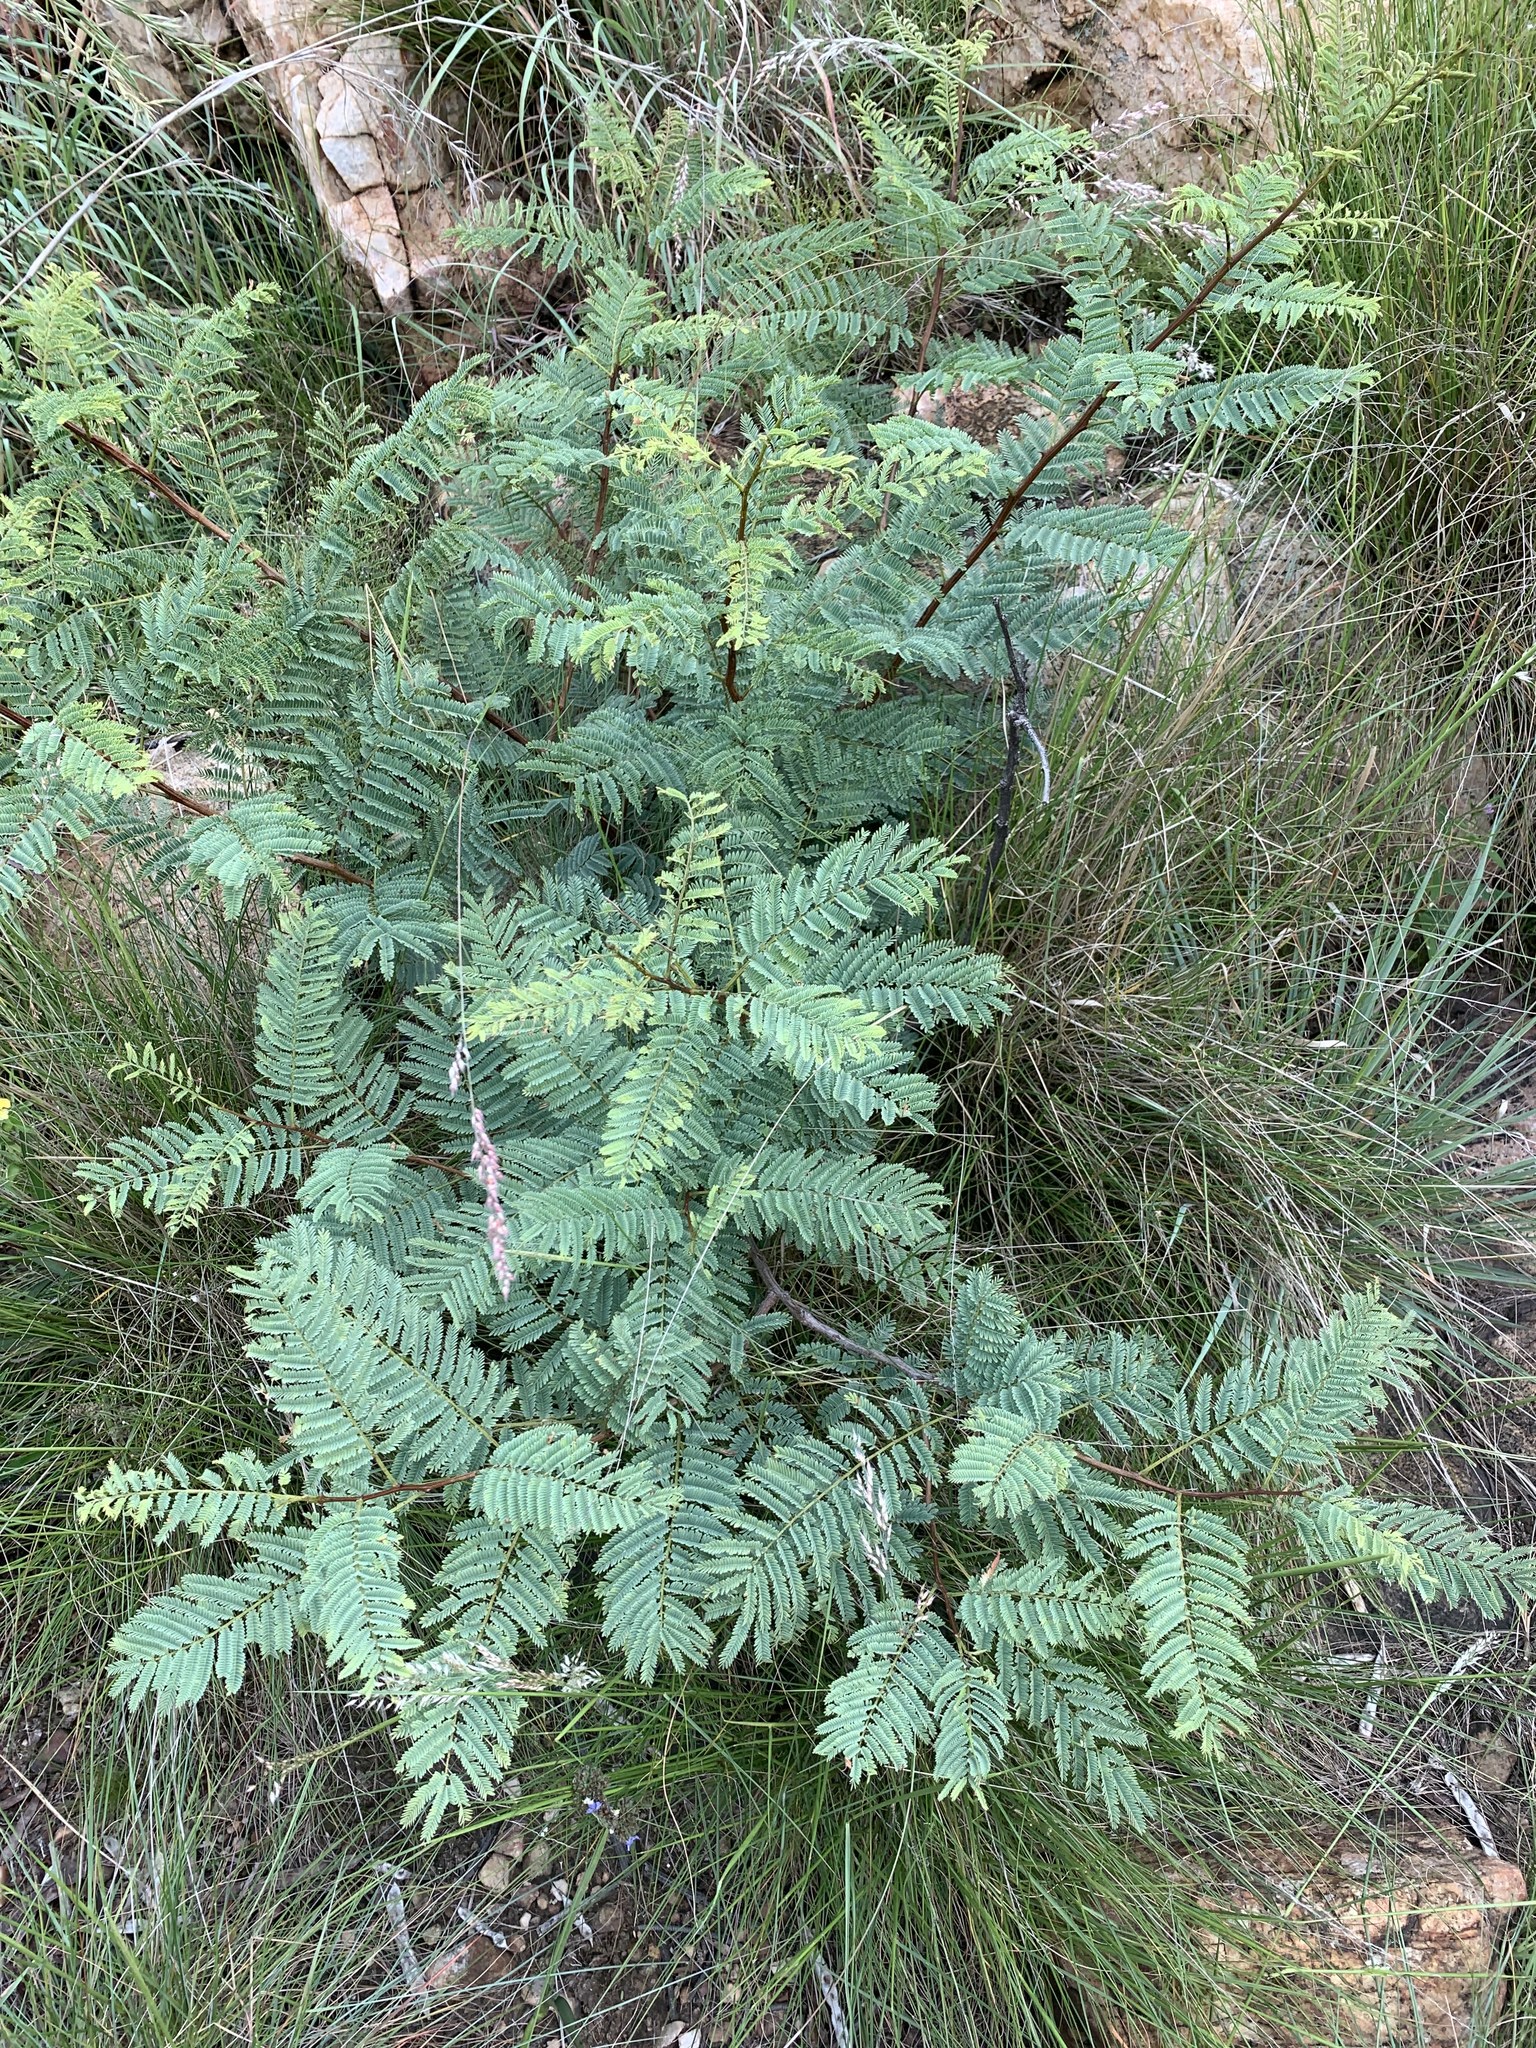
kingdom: Plantae
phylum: Tracheophyta
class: Magnoliopsida
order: Fabales
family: Fabaceae
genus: Senegalia
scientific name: Senegalia caffra
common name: Cat thorn
